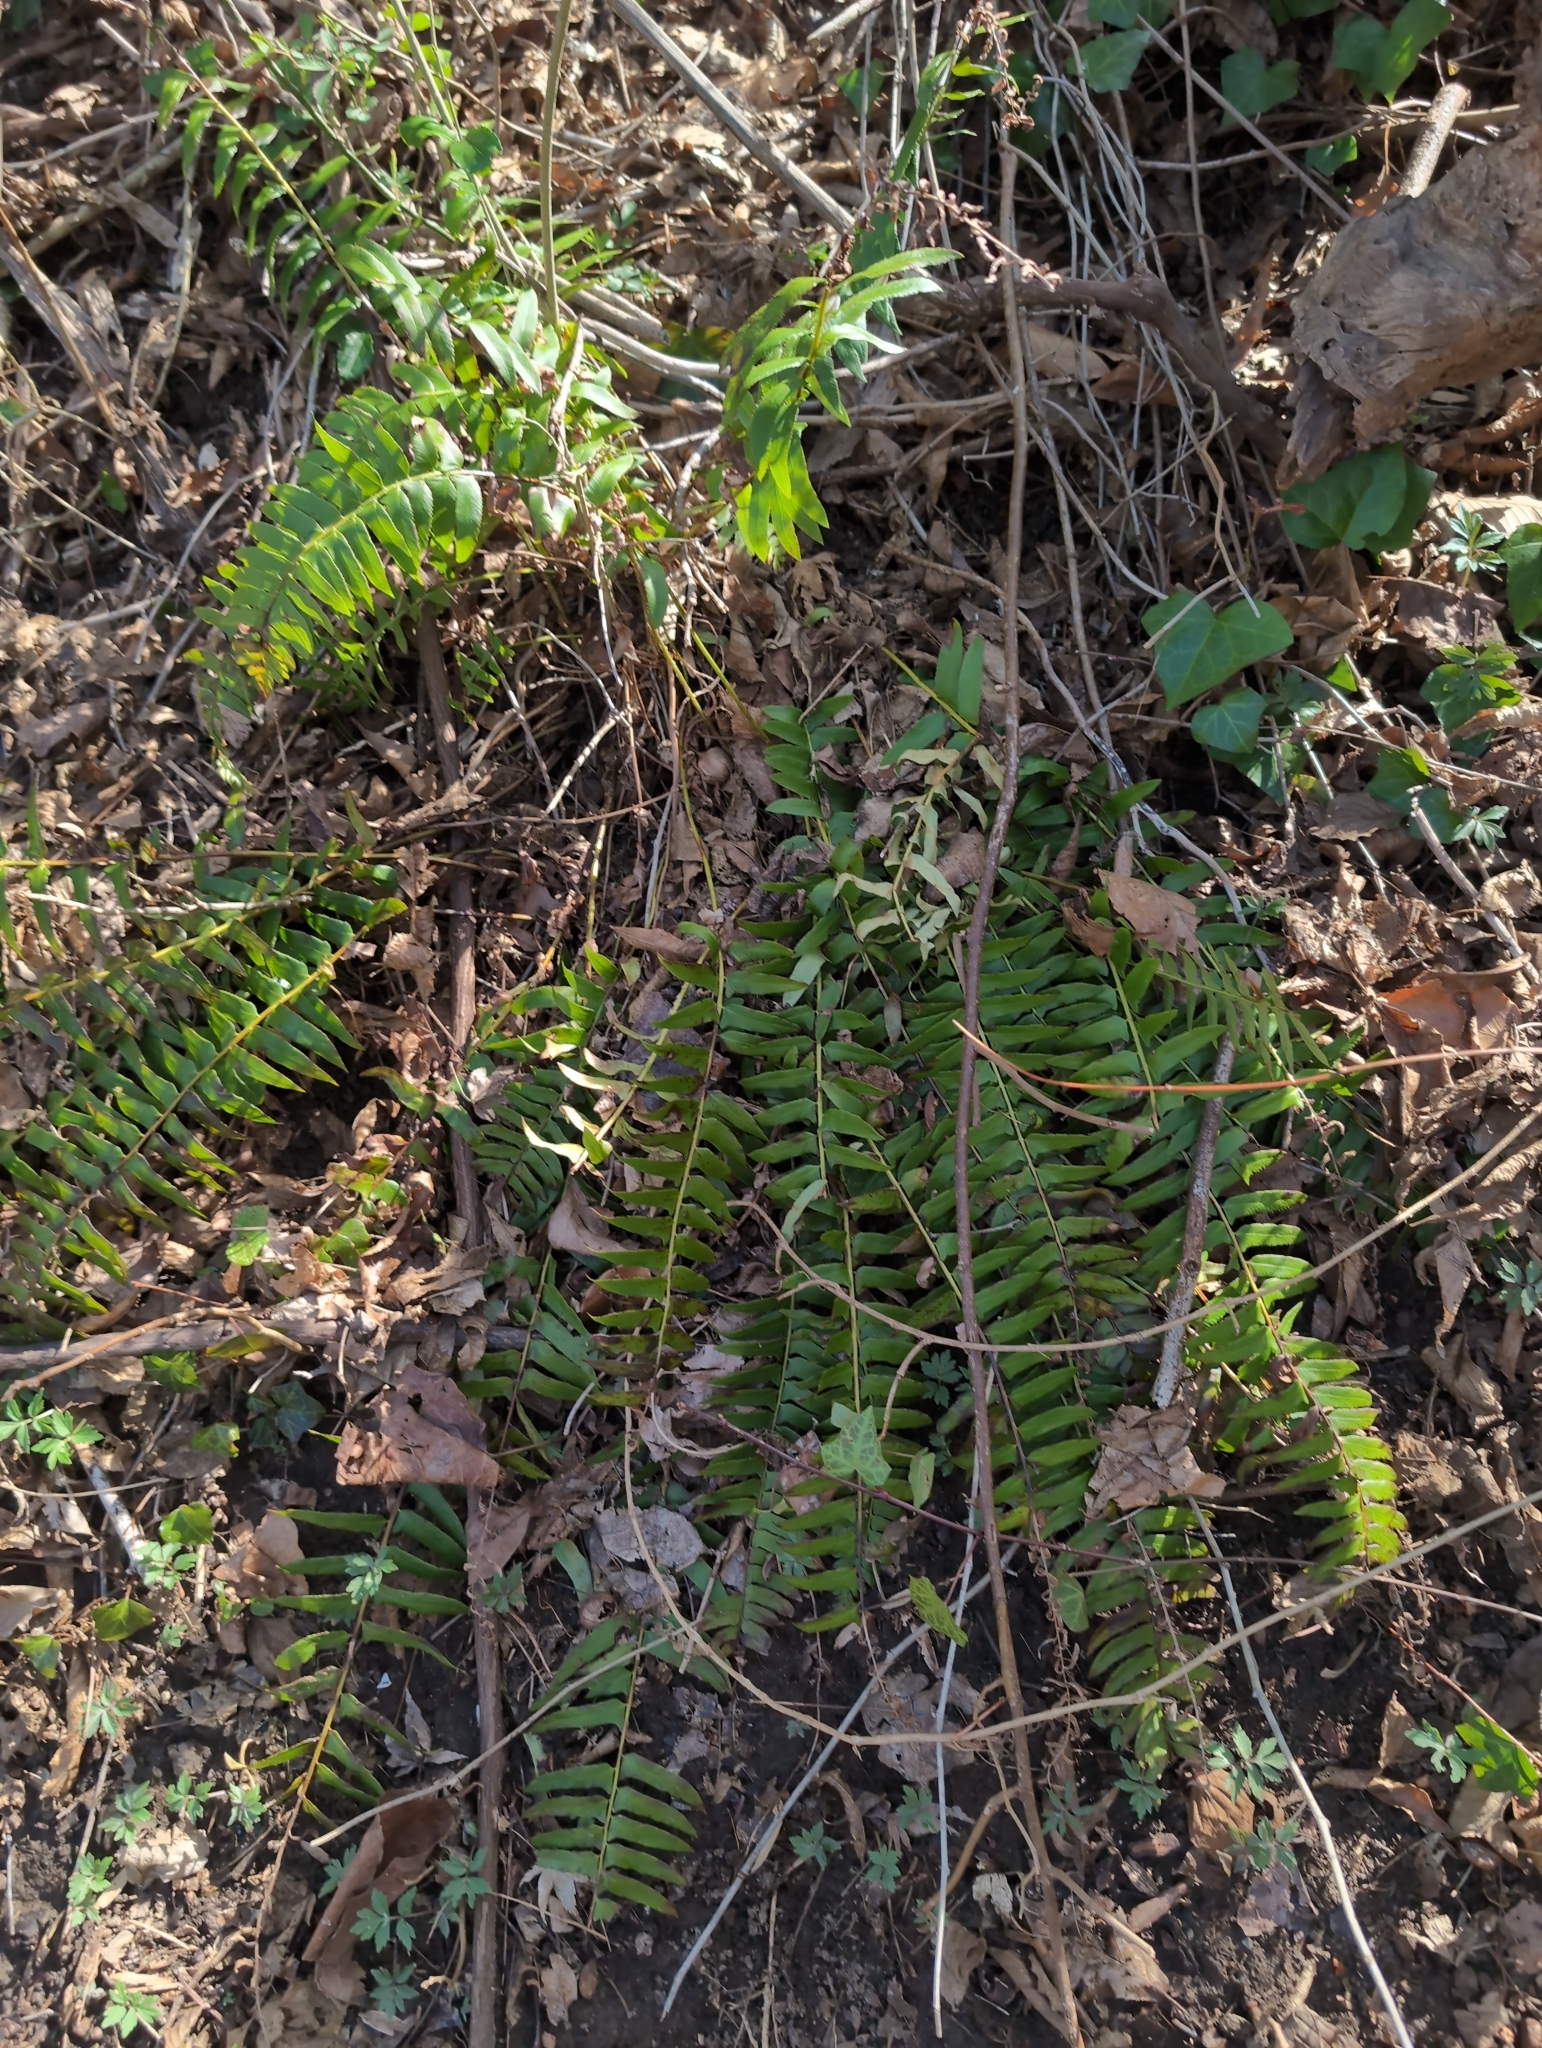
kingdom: Plantae
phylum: Tracheophyta
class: Polypodiopsida
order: Polypodiales
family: Dryopteridaceae
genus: Polystichum
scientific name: Polystichum acrostichoides
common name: Christmas fern
